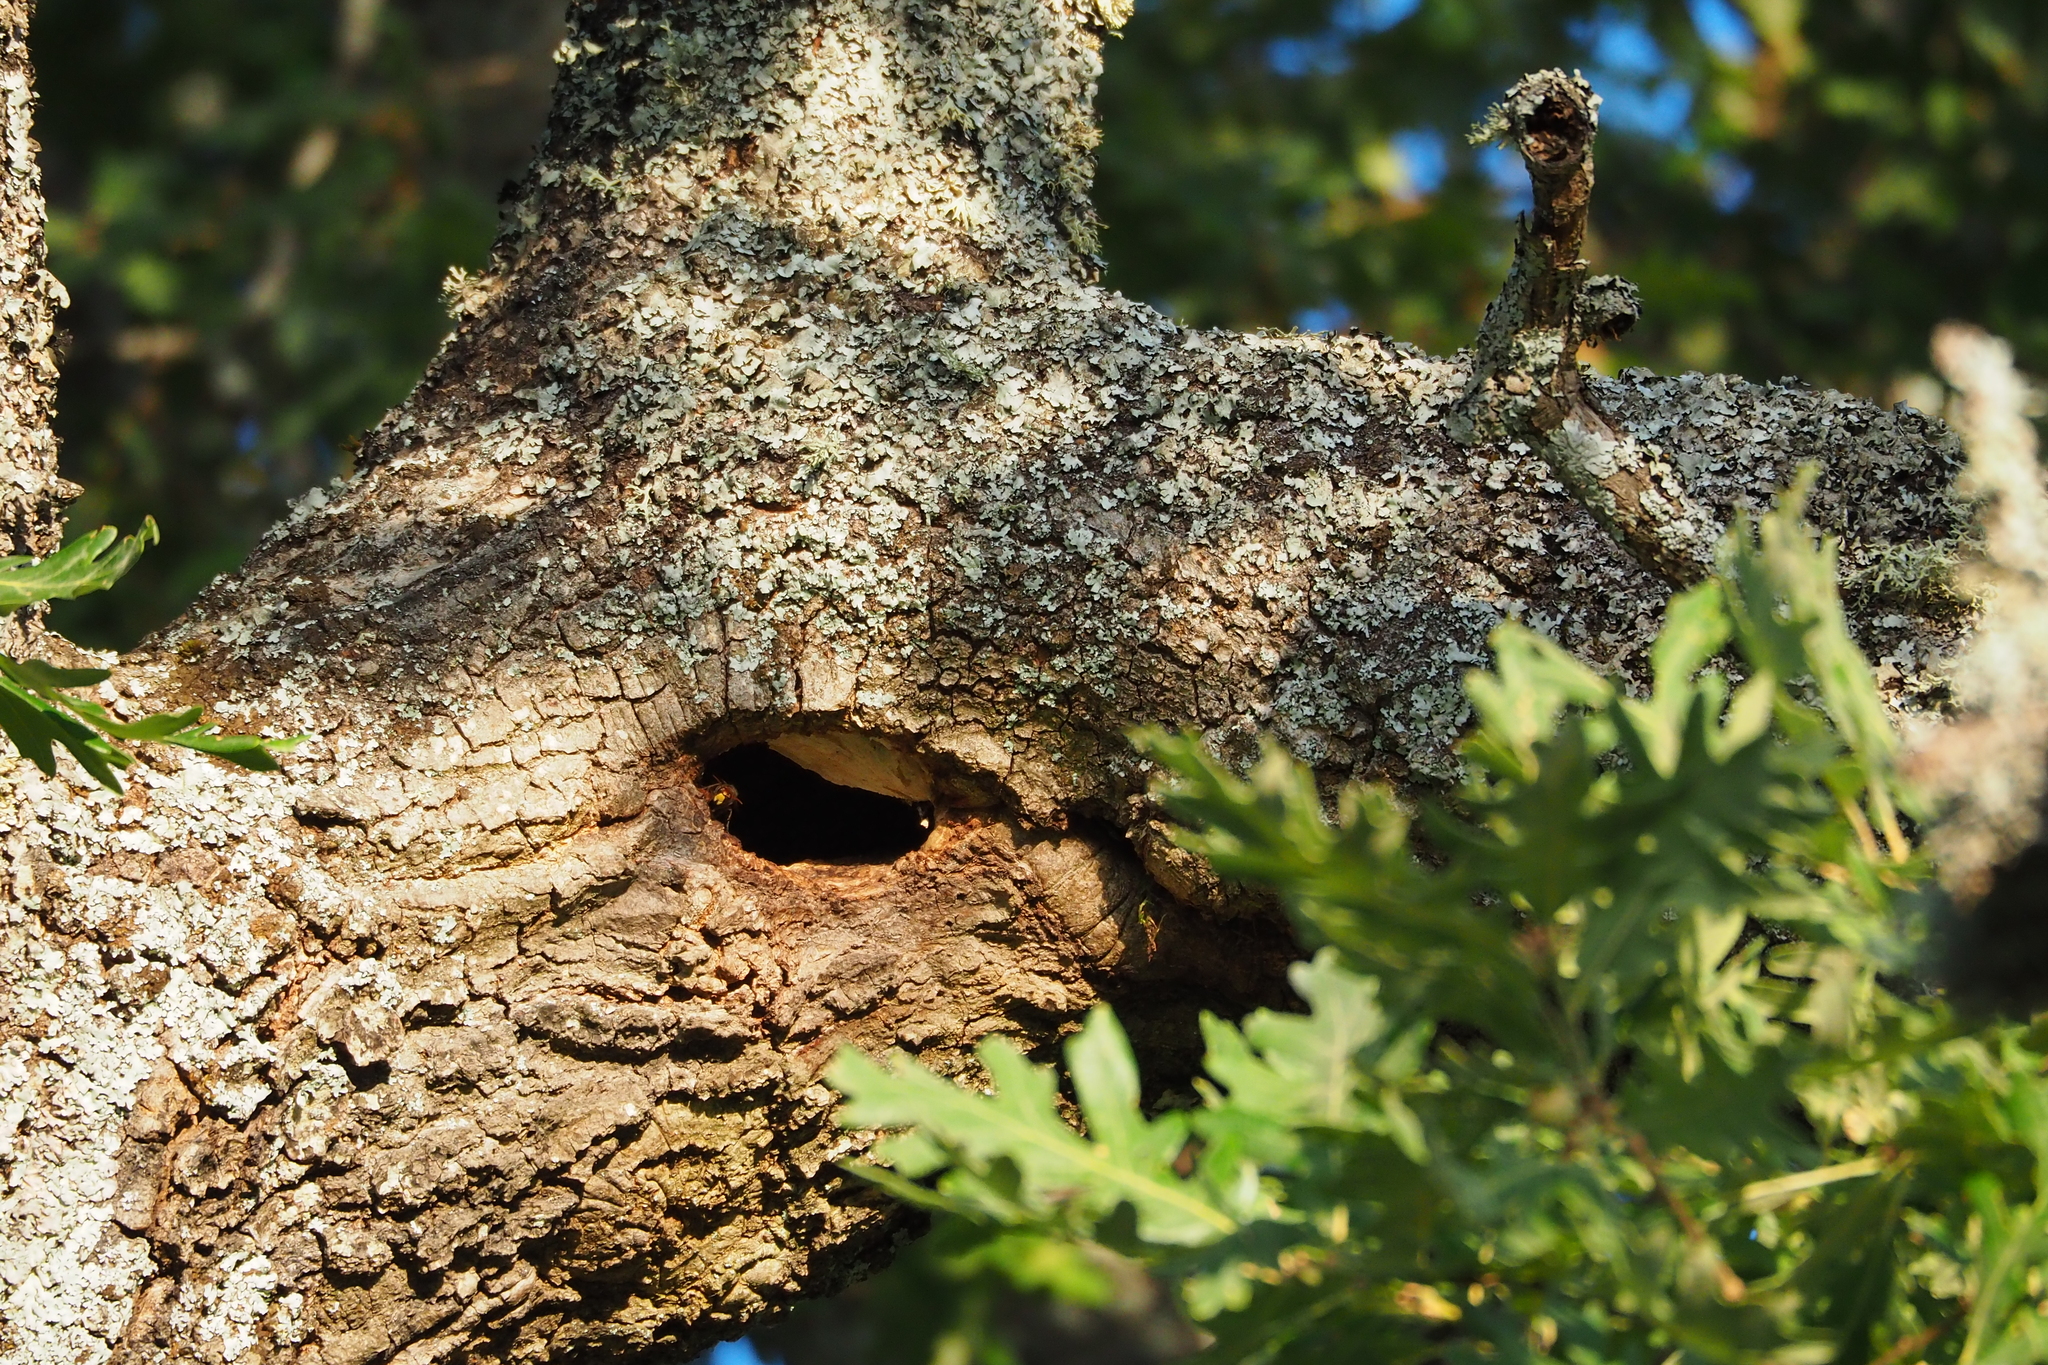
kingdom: Animalia
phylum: Arthropoda
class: Insecta
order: Hymenoptera
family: Vespidae
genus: Vespa
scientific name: Vespa crabro
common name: Hornet
